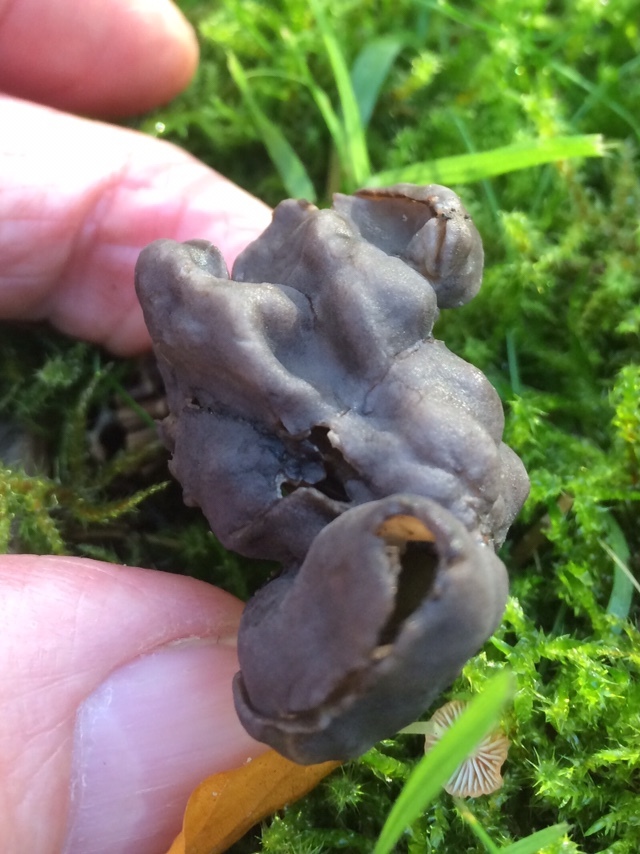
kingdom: Fungi
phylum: Ascomycota
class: Pezizomycetes
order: Pezizales
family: Helvellaceae
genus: Helvella
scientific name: Helvella lacunosa
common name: Elfin saddle
